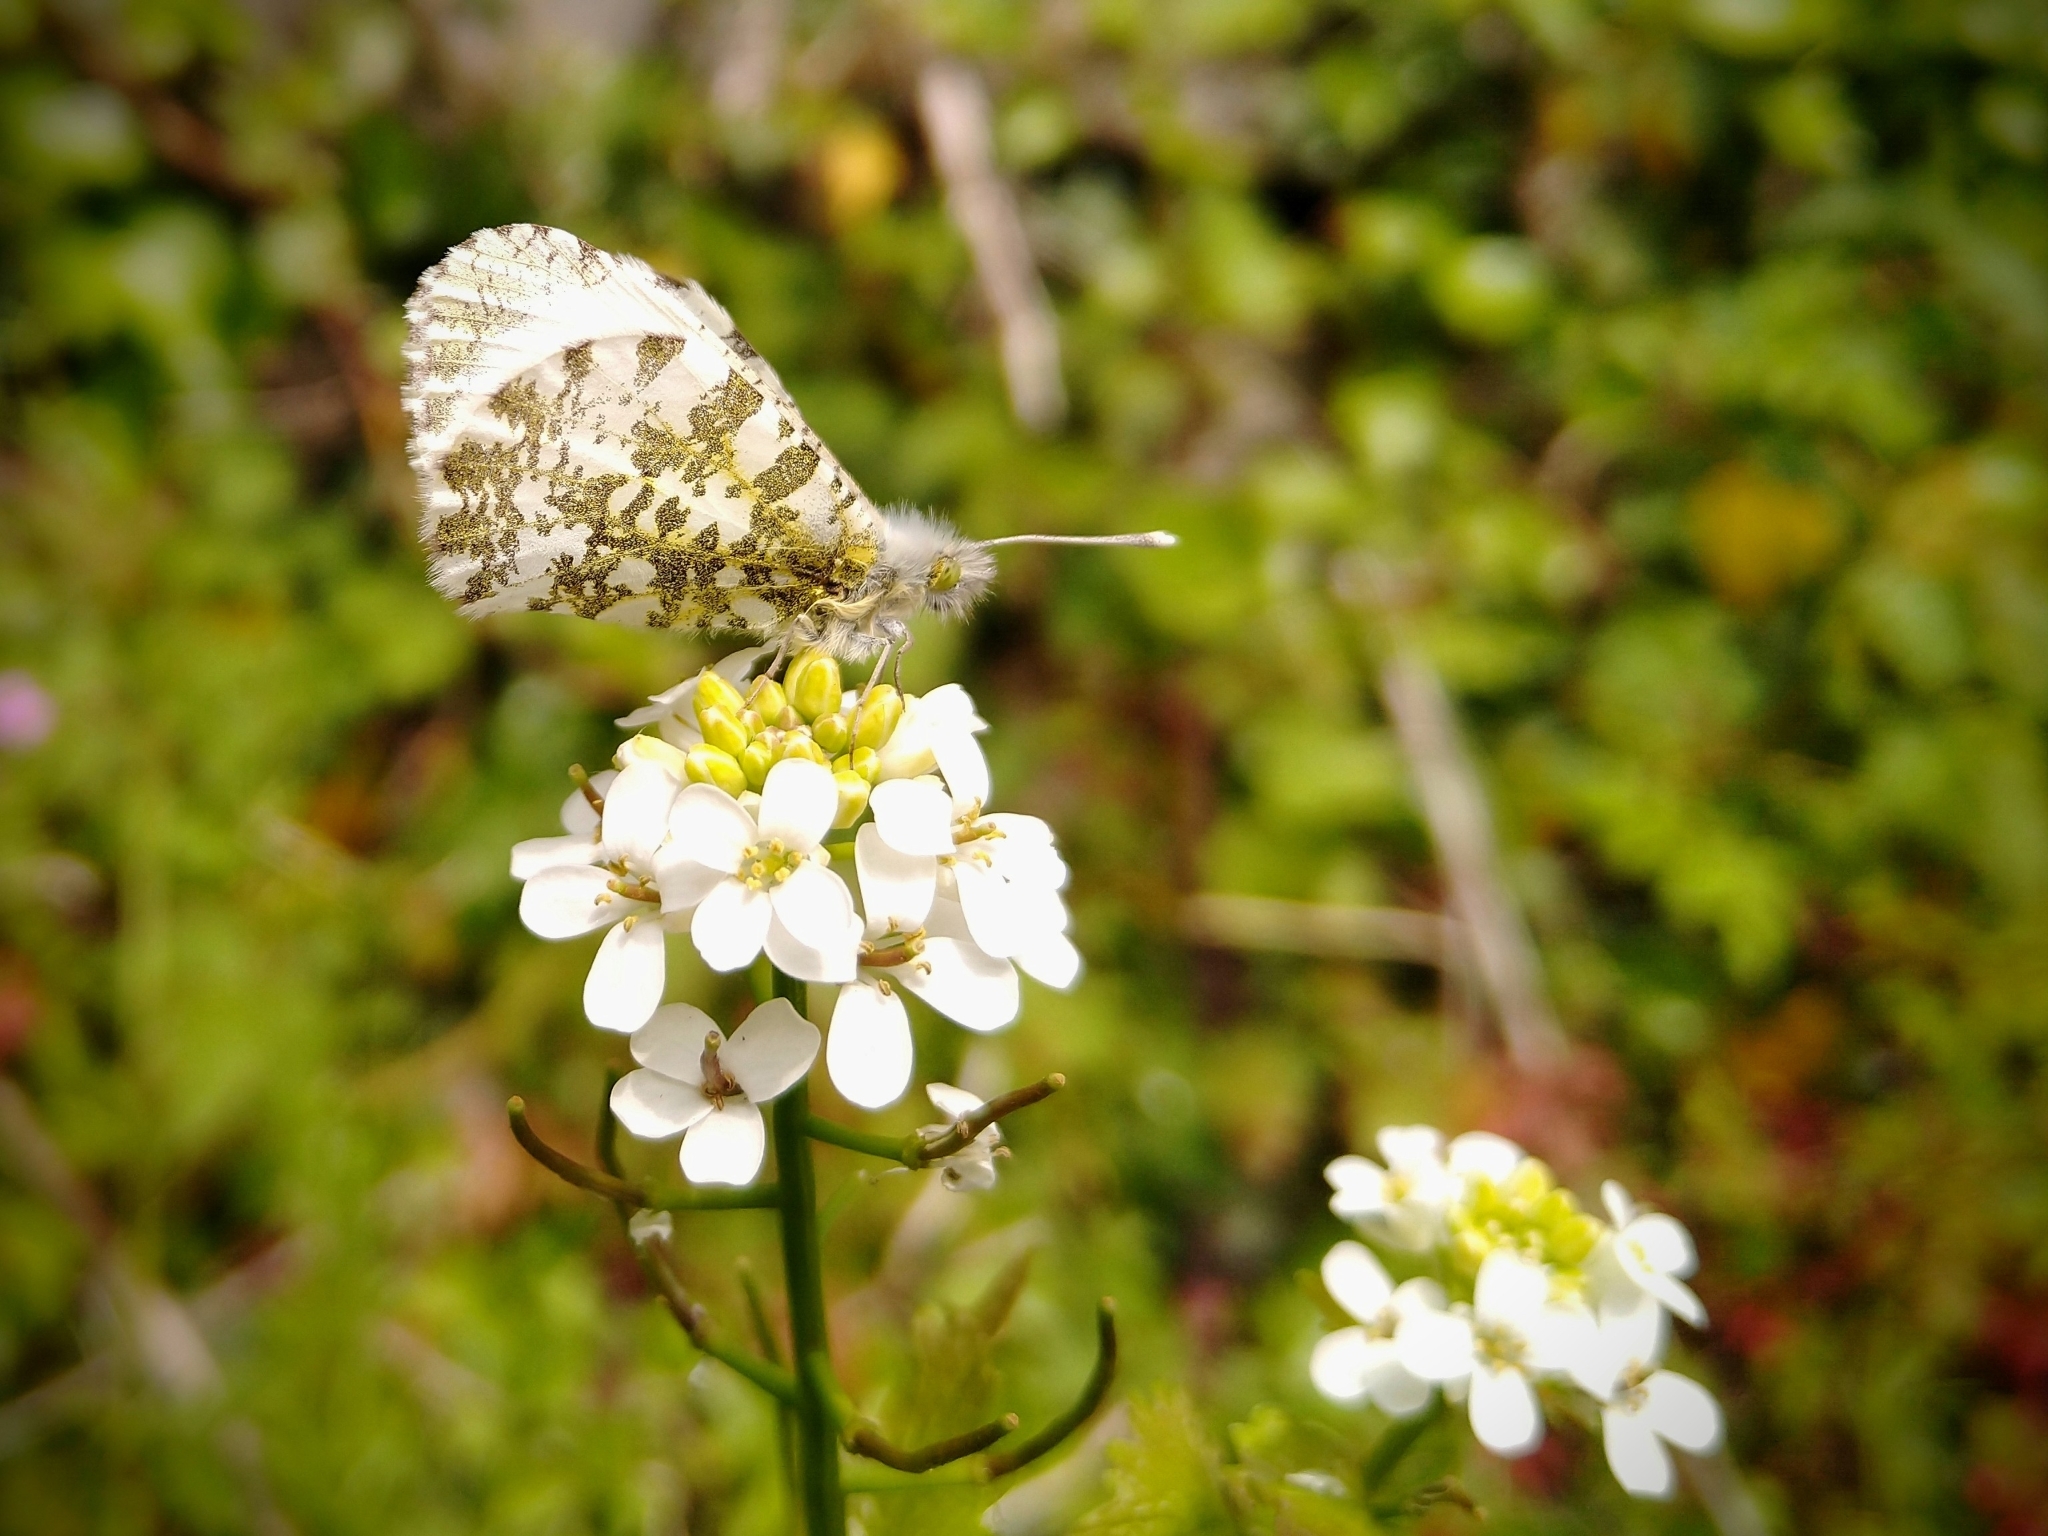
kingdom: Animalia
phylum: Arthropoda
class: Insecta
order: Lepidoptera
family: Pieridae
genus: Anthocharis
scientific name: Anthocharis cardamines
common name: Orange-tip
